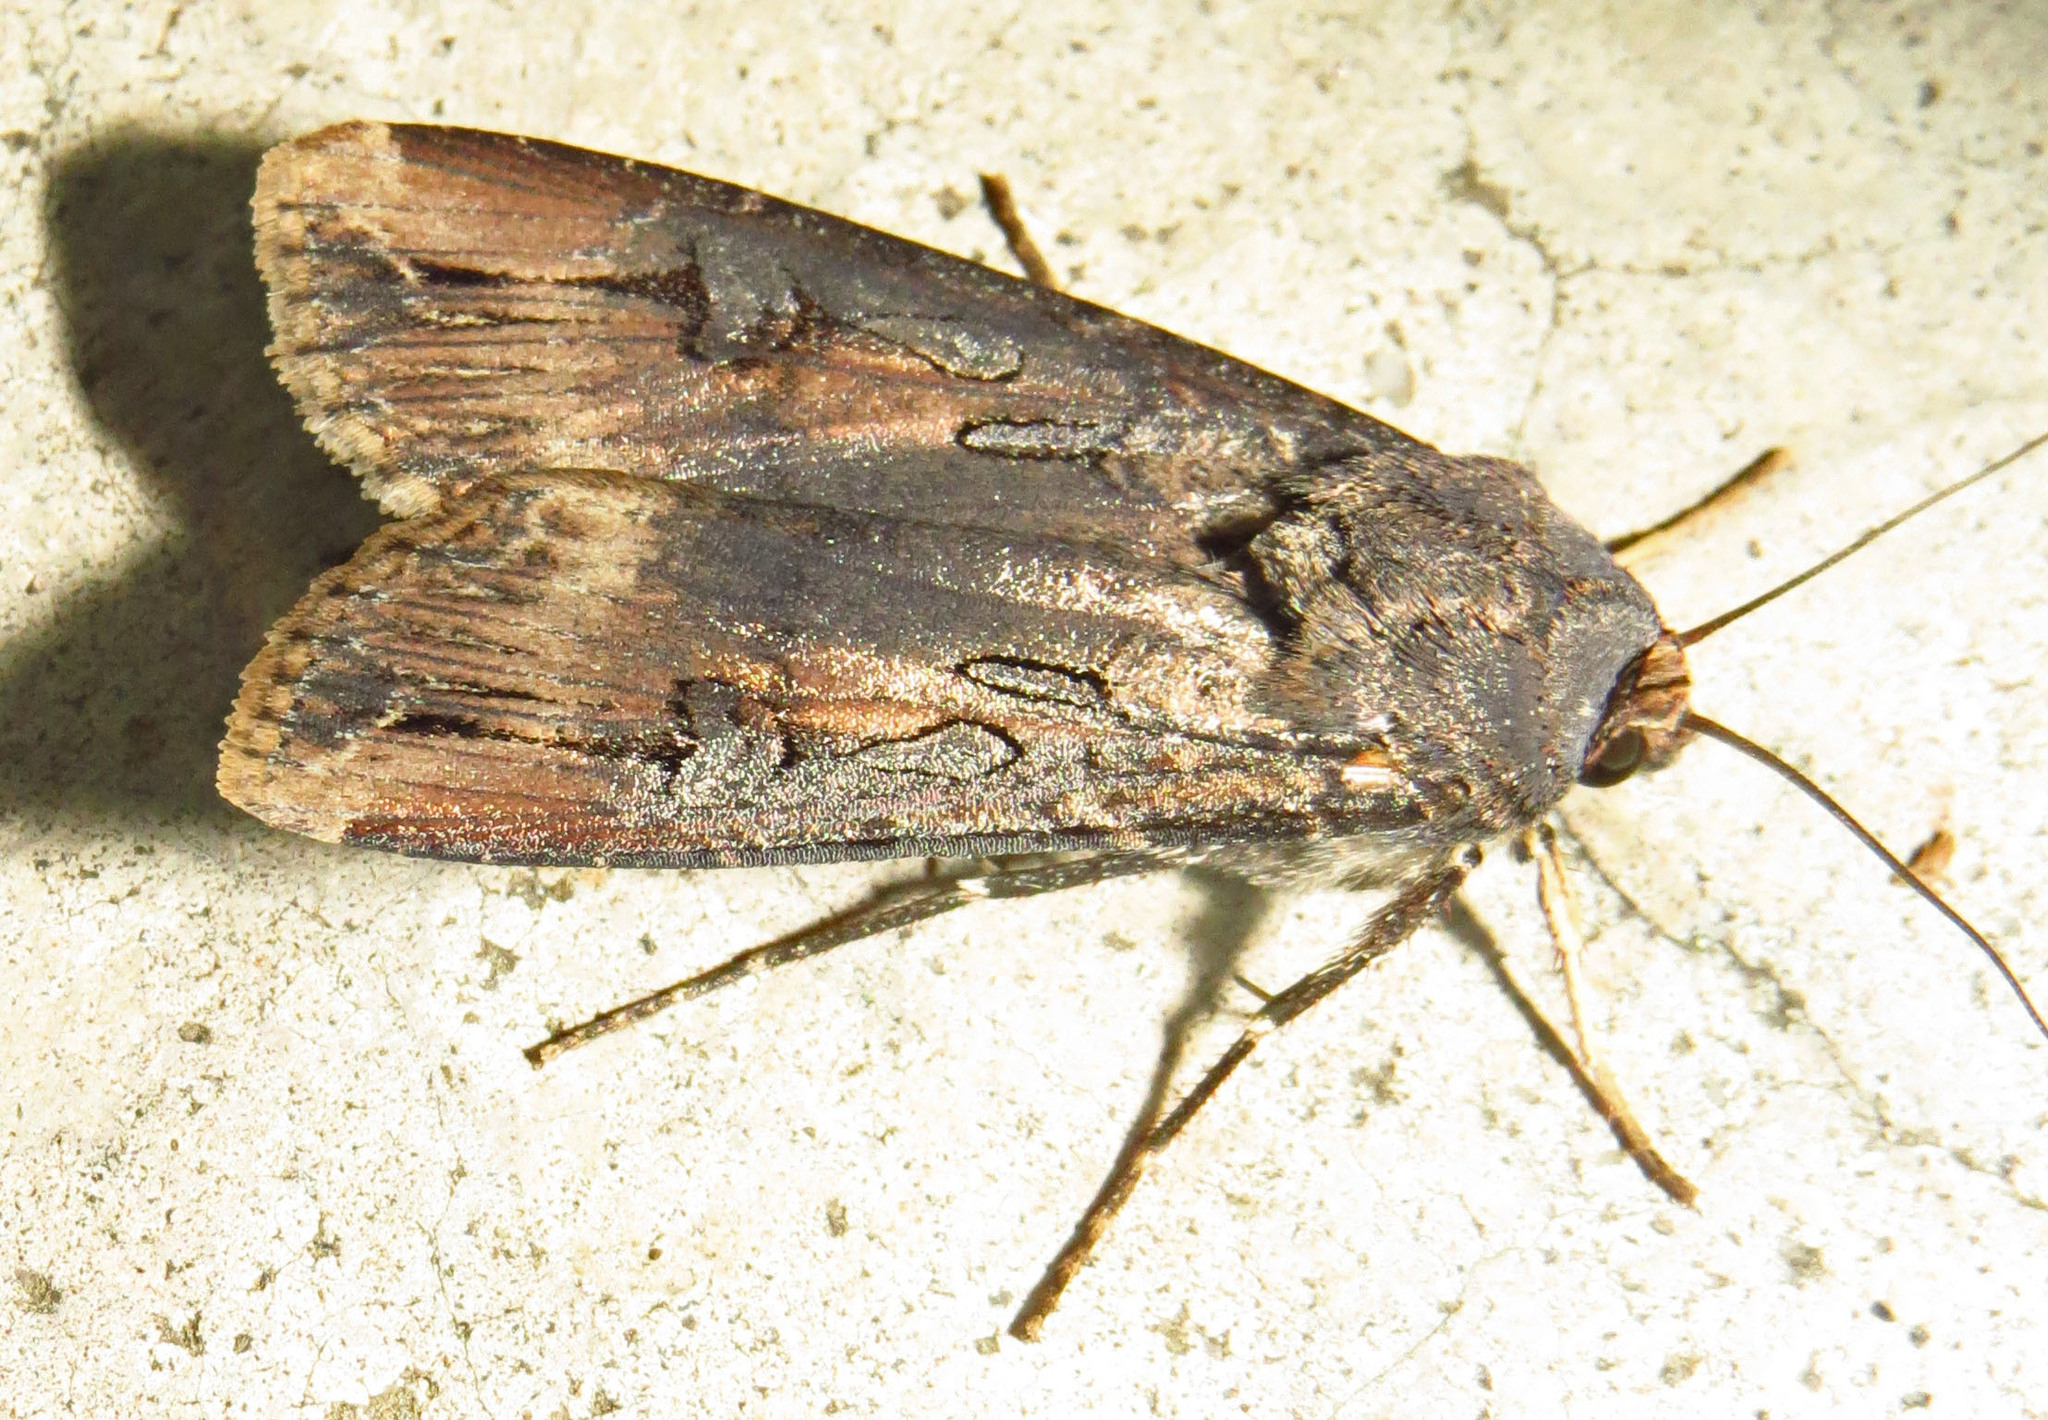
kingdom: Animalia
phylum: Arthropoda
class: Insecta
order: Lepidoptera
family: Noctuidae
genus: Agrotis
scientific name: Agrotis ipsilon
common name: Dark sword-grass
